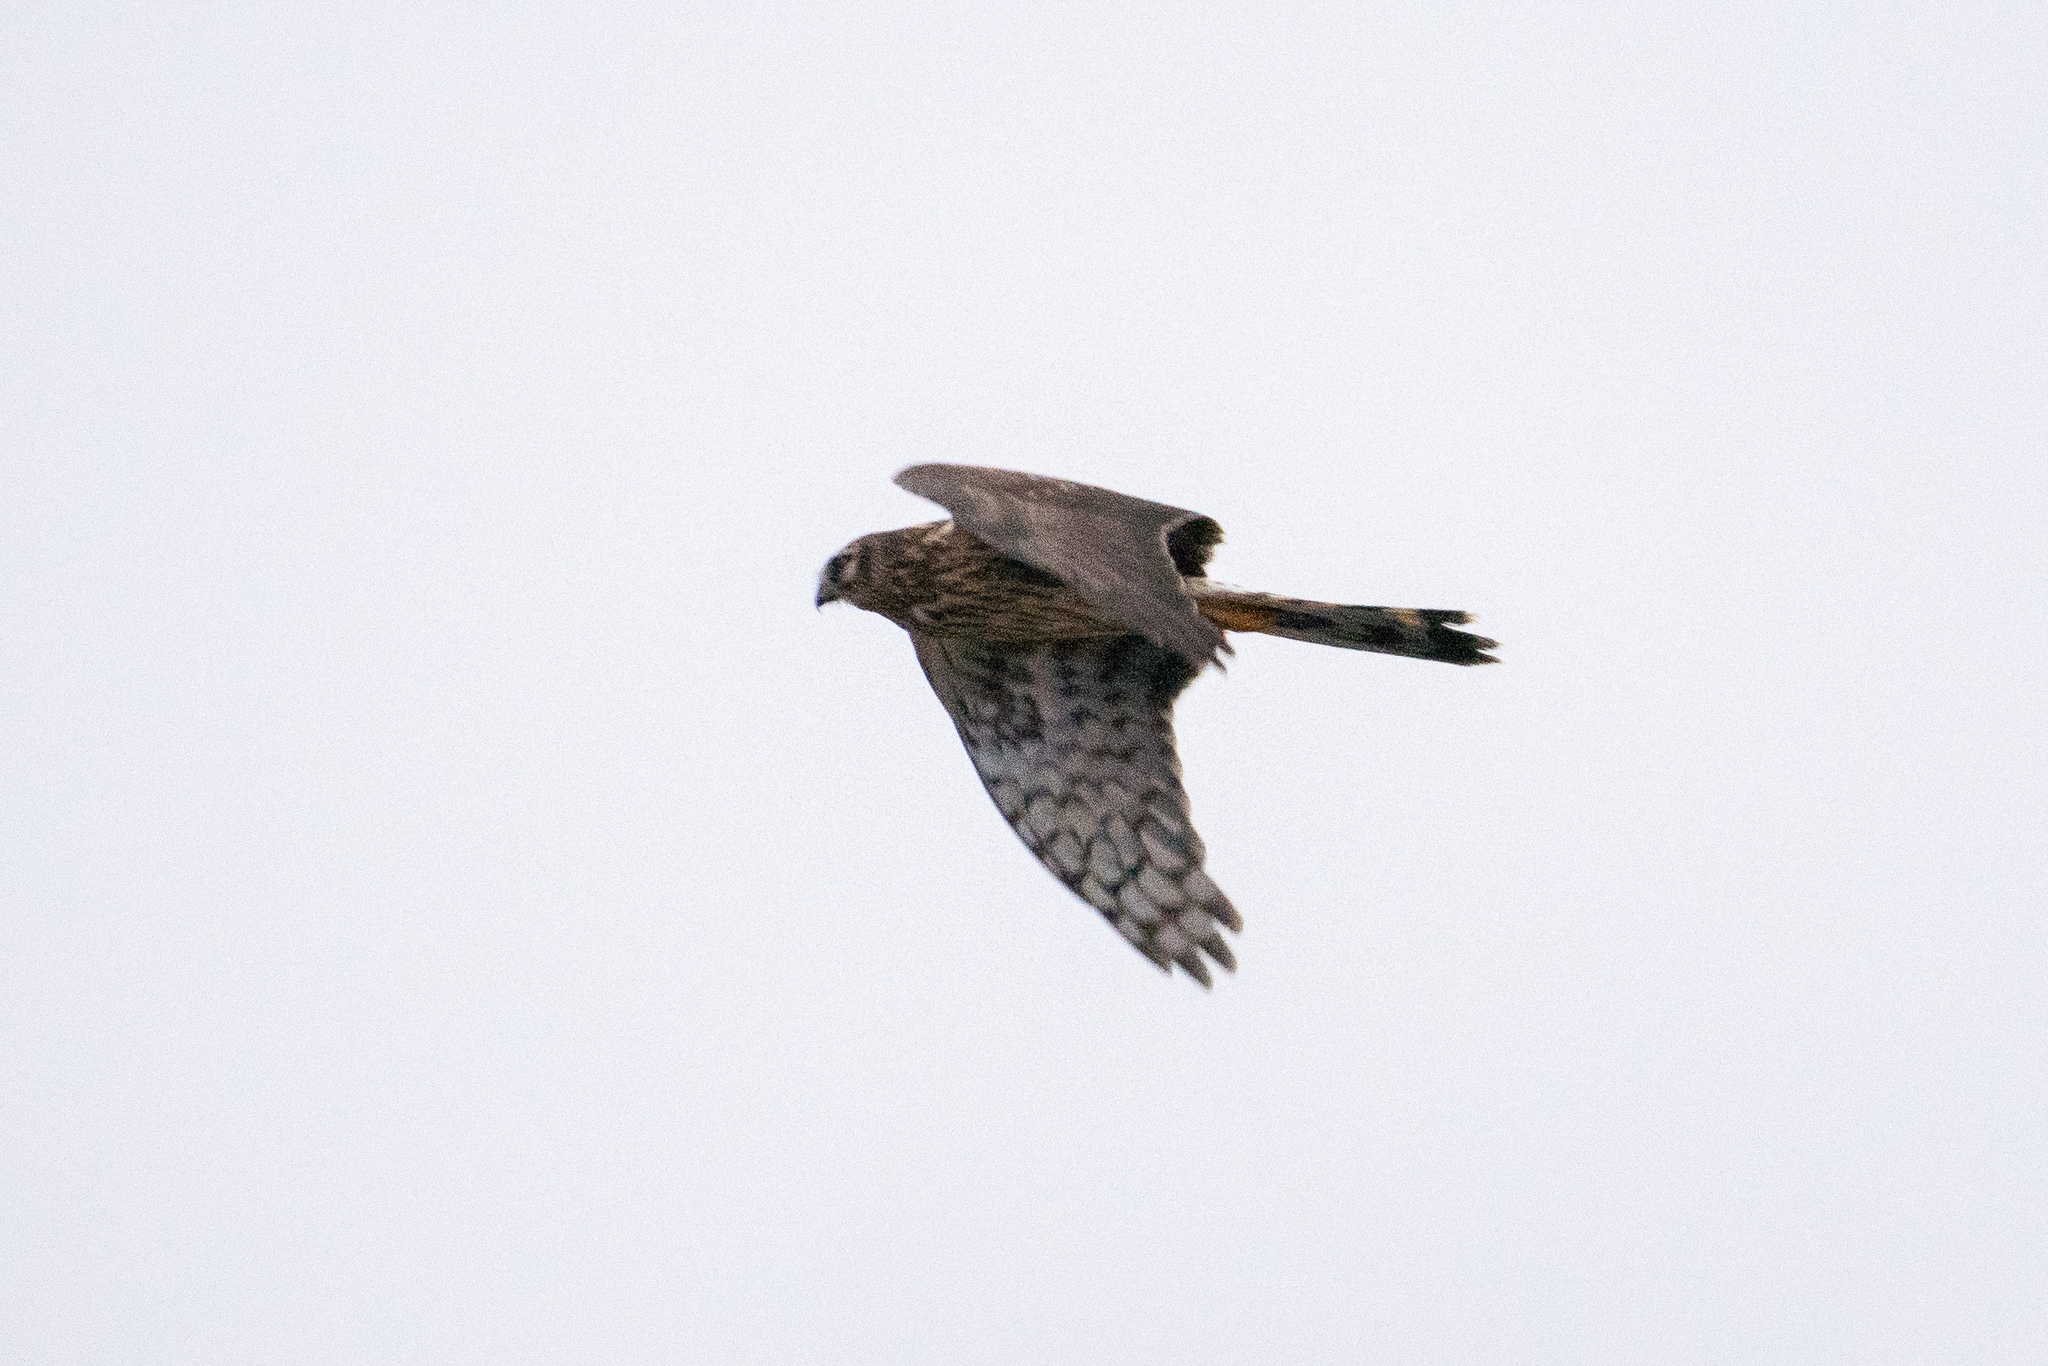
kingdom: Animalia
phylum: Chordata
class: Aves
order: Accipitriformes
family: Accipitridae
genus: Circus
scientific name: Circus cyaneus
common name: Hen harrier
